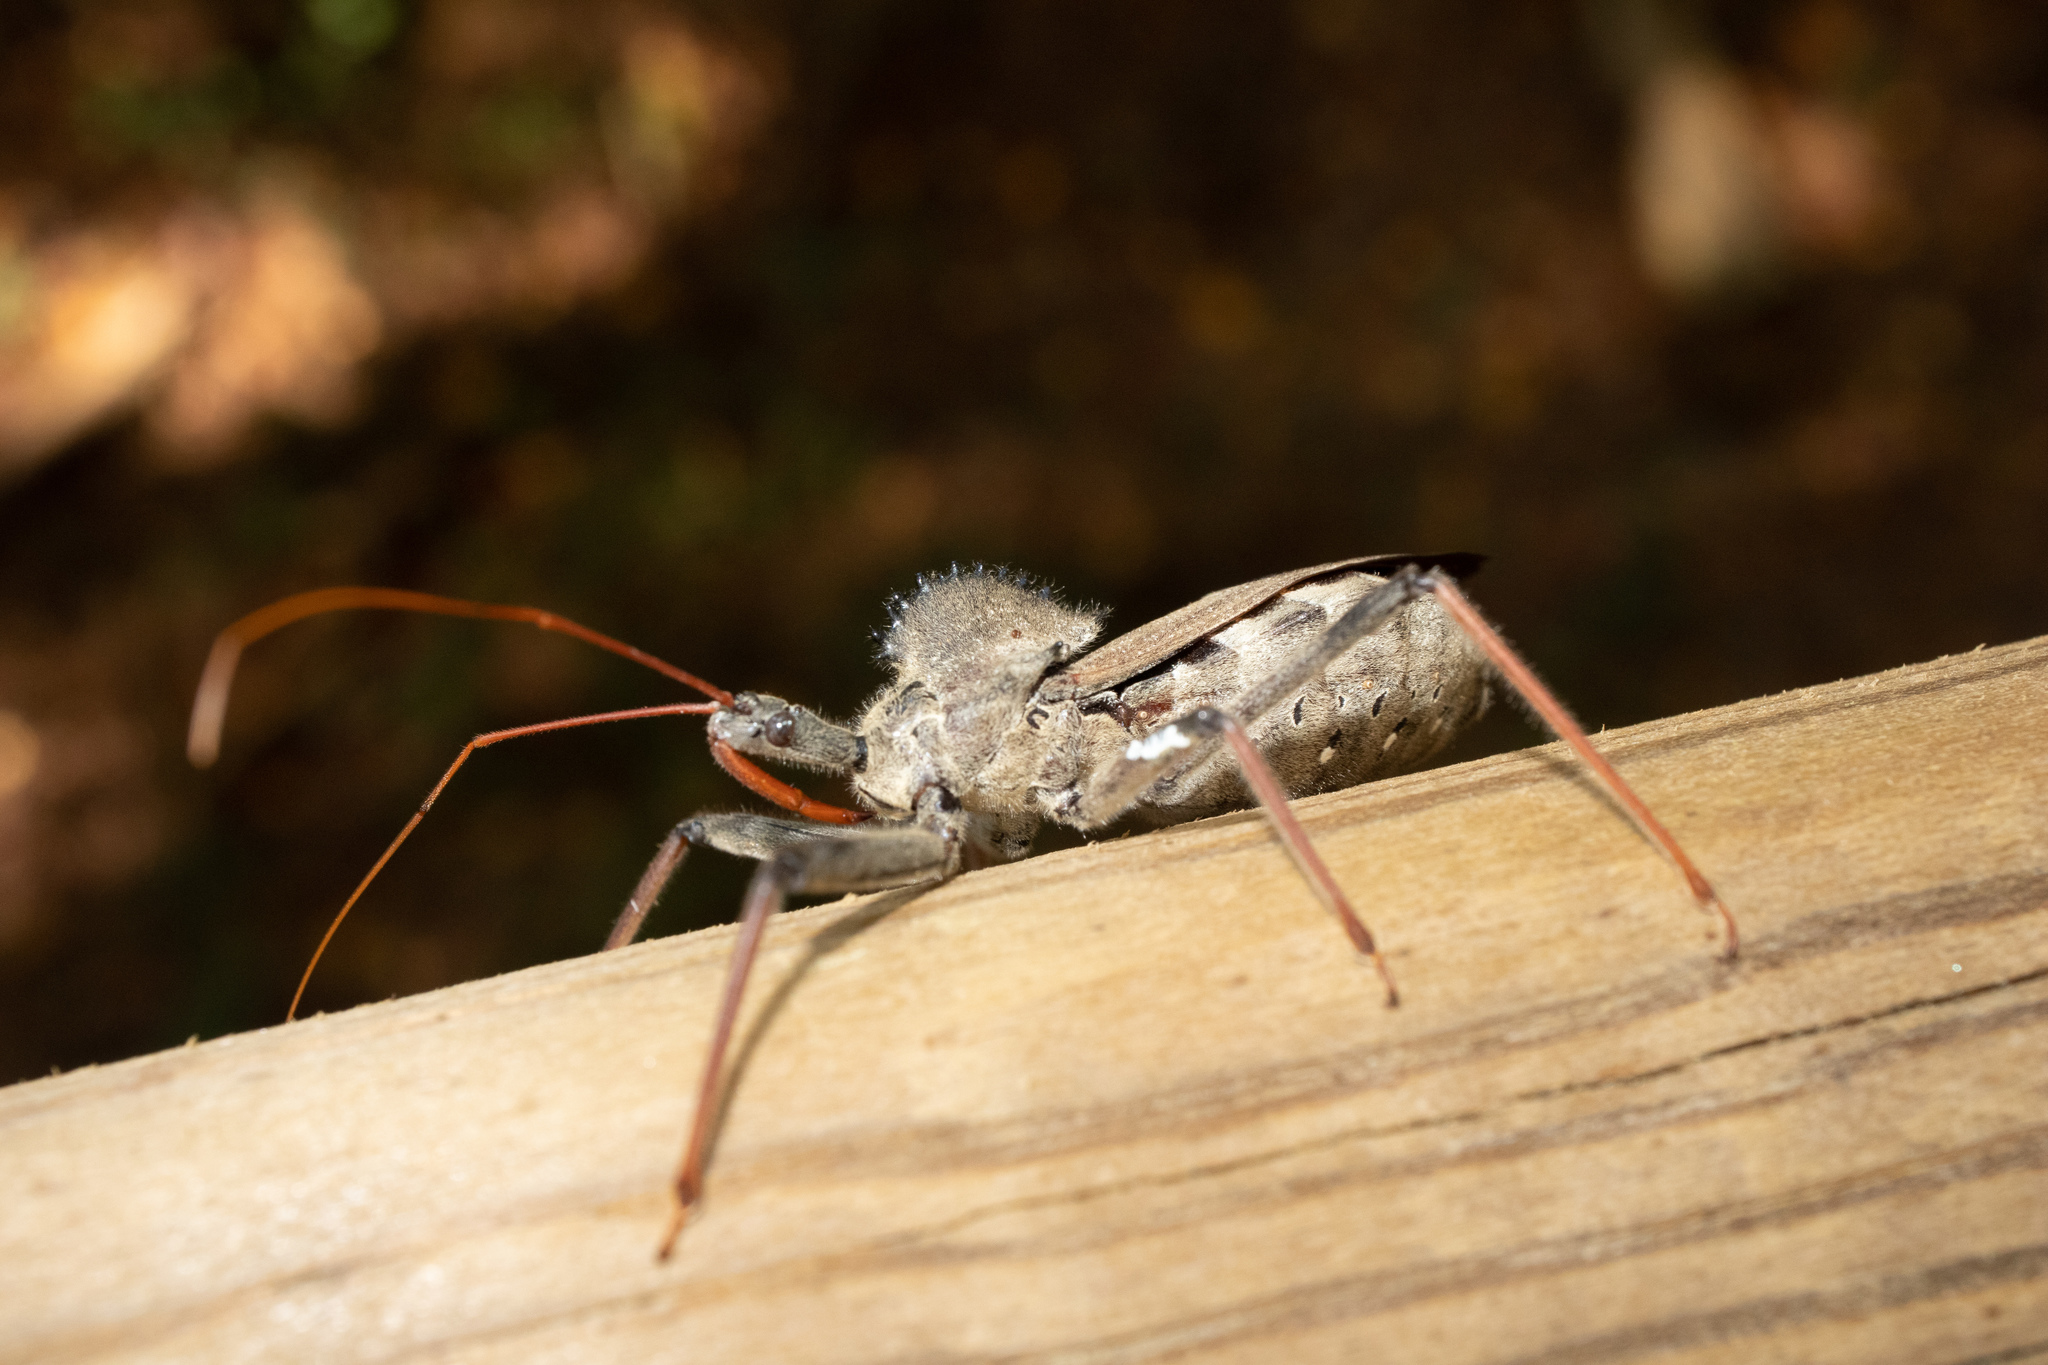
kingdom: Animalia
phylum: Arthropoda
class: Insecta
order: Hemiptera
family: Reduviidae
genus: Arilus
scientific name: Arilus cristatus
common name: North american wheel bug
